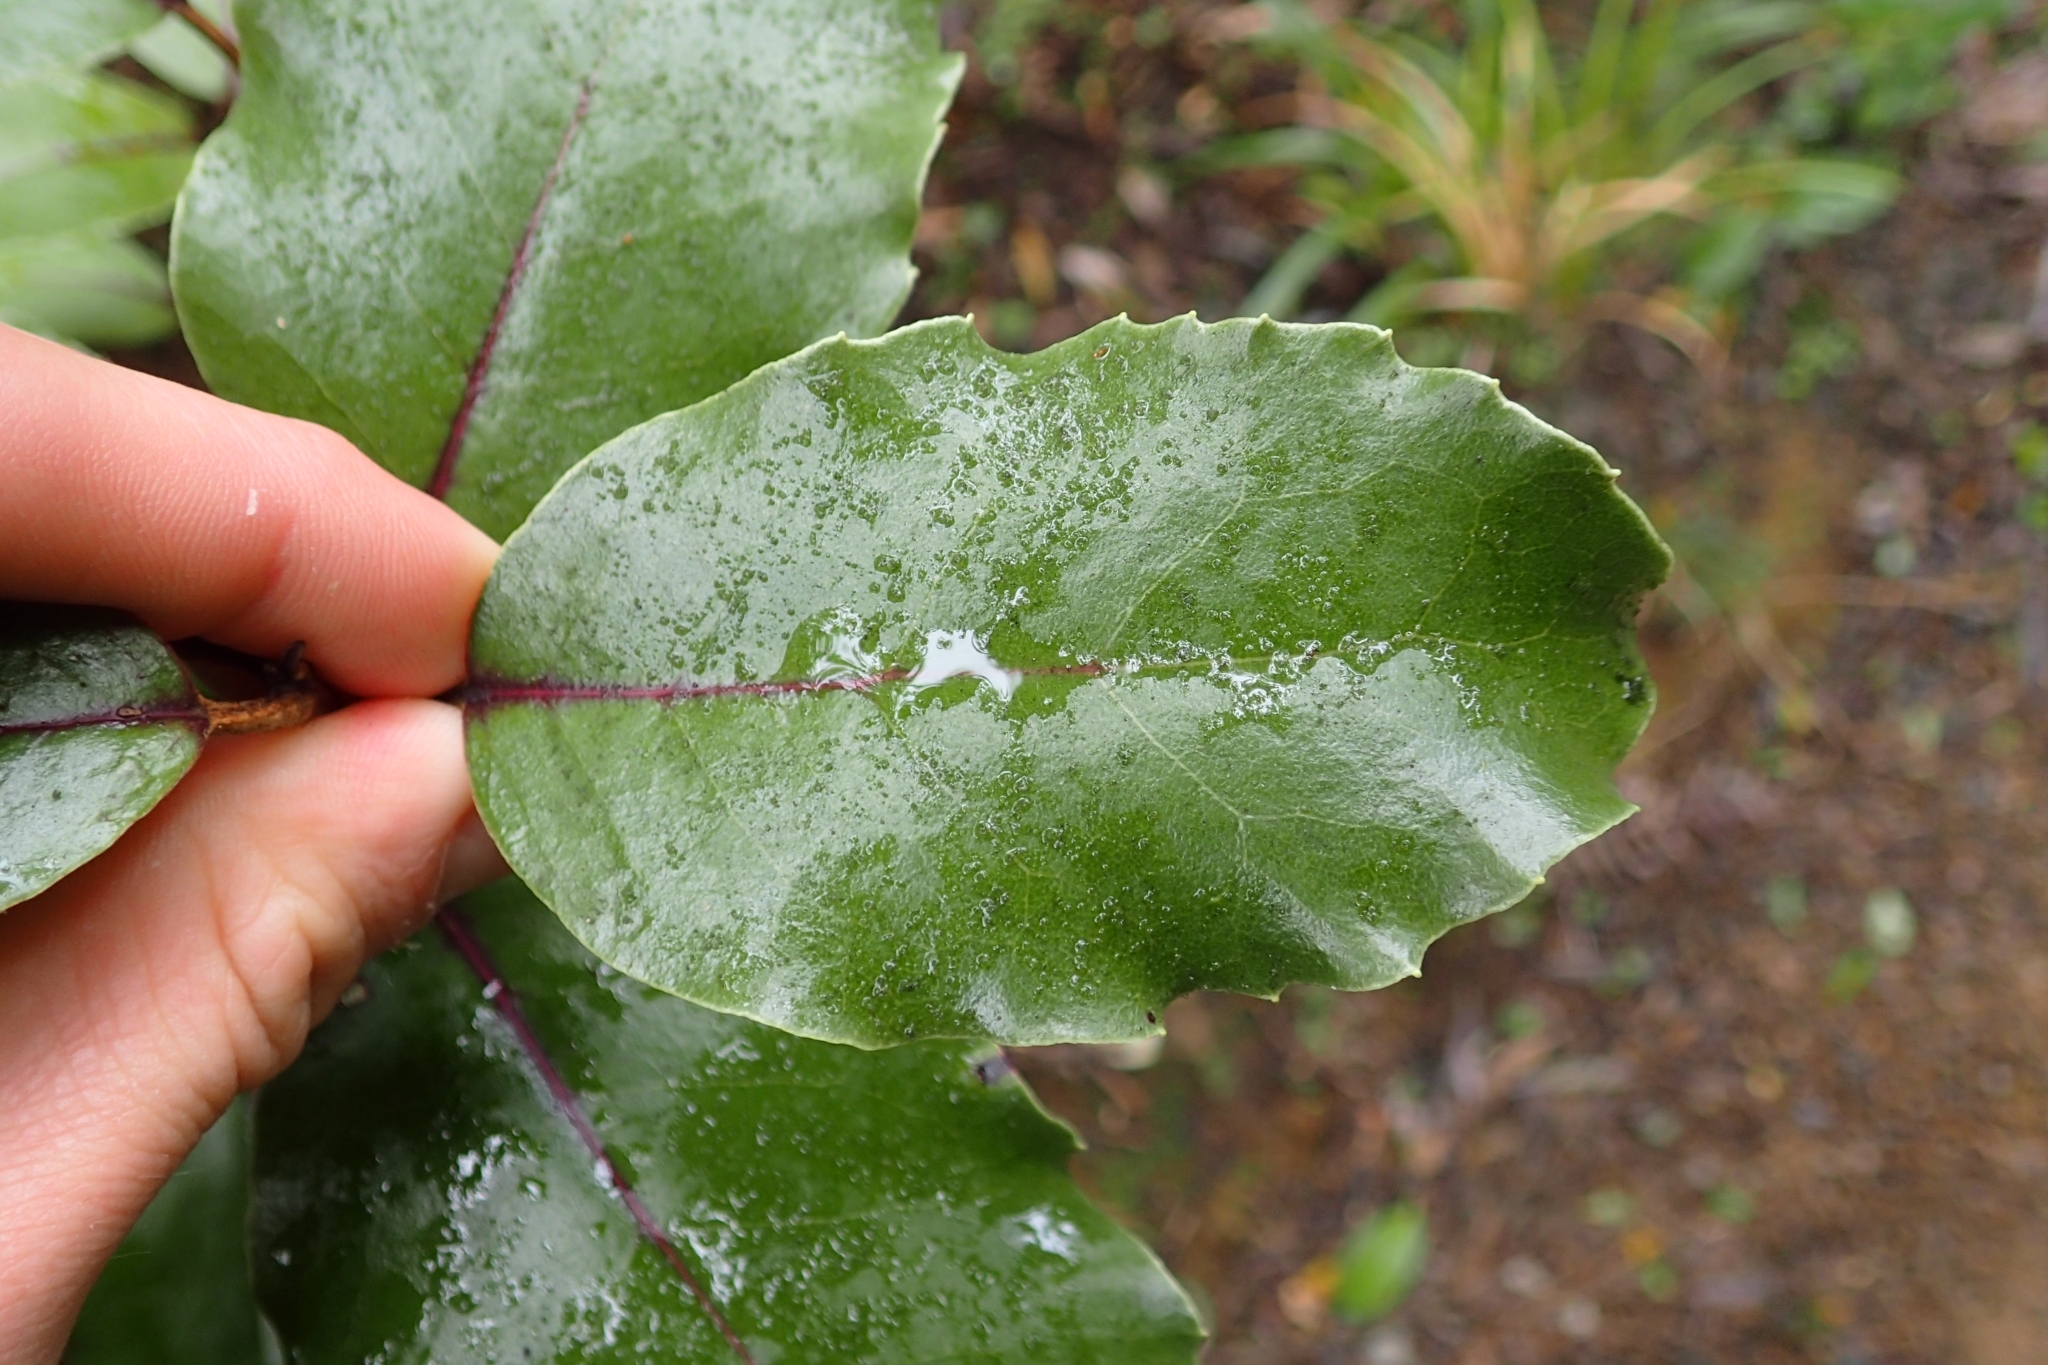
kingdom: Plantae
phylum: Tracheophyta
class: Magnoliopsida
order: Asterales
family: Asteraceae
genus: Olearia
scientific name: Olearia furfuracea
